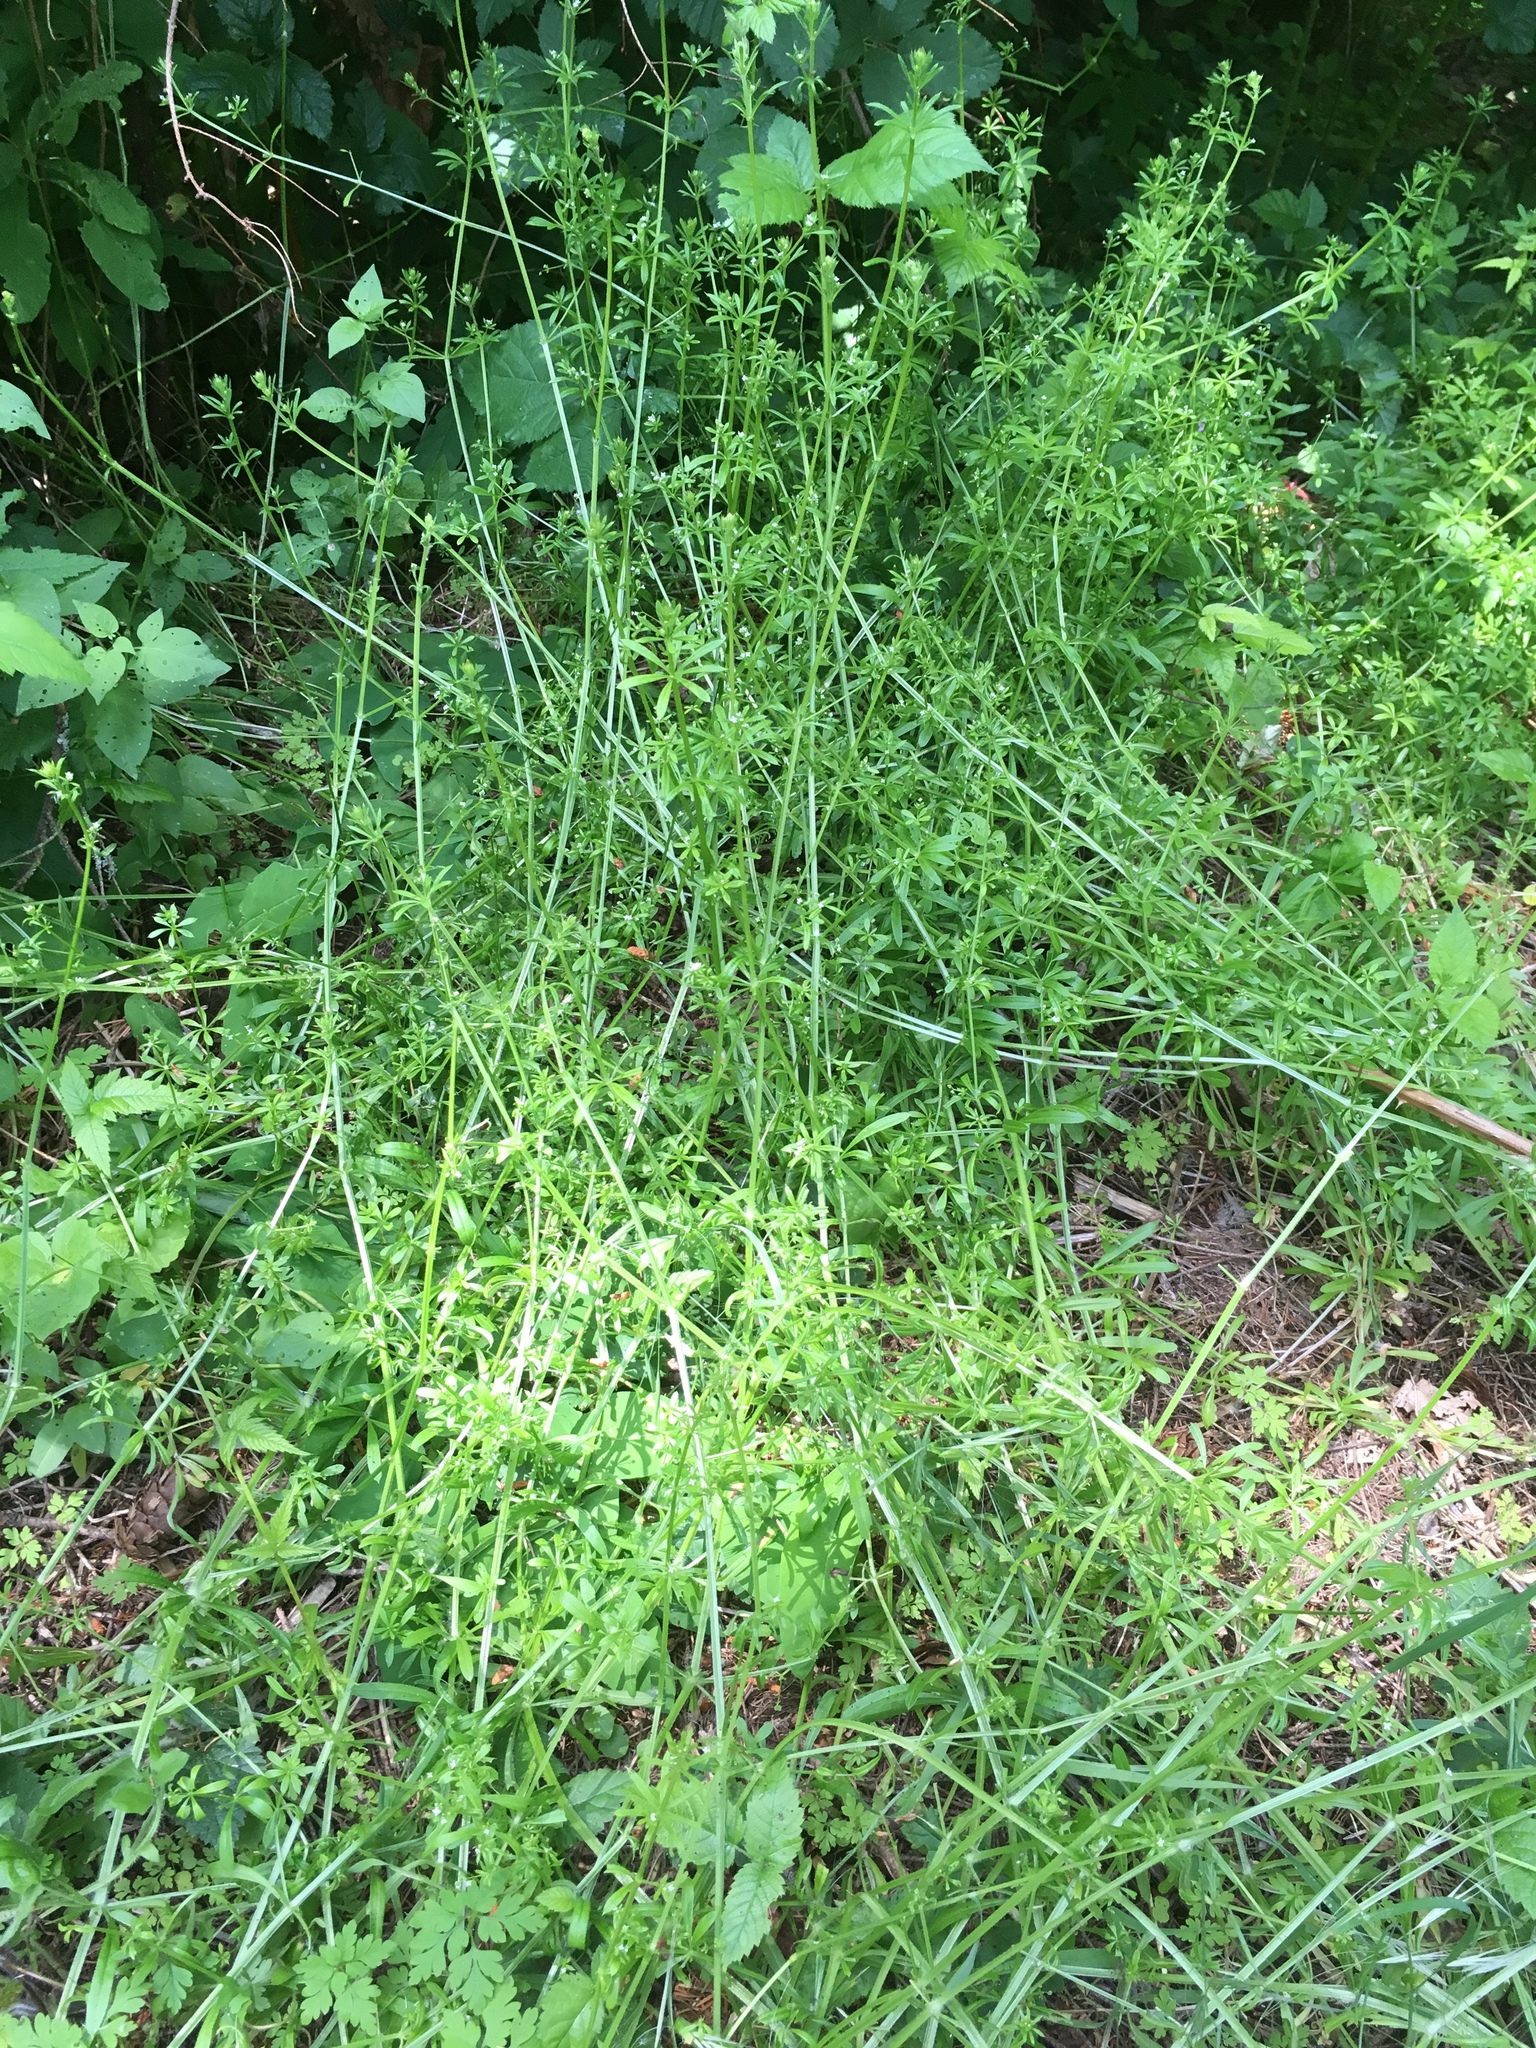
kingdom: Plantae
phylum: Tracheophyta
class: Magnoliopsida
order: Gentianales
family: Rubiaceae
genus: Galium
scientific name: Galium aparine
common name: Cleavers
